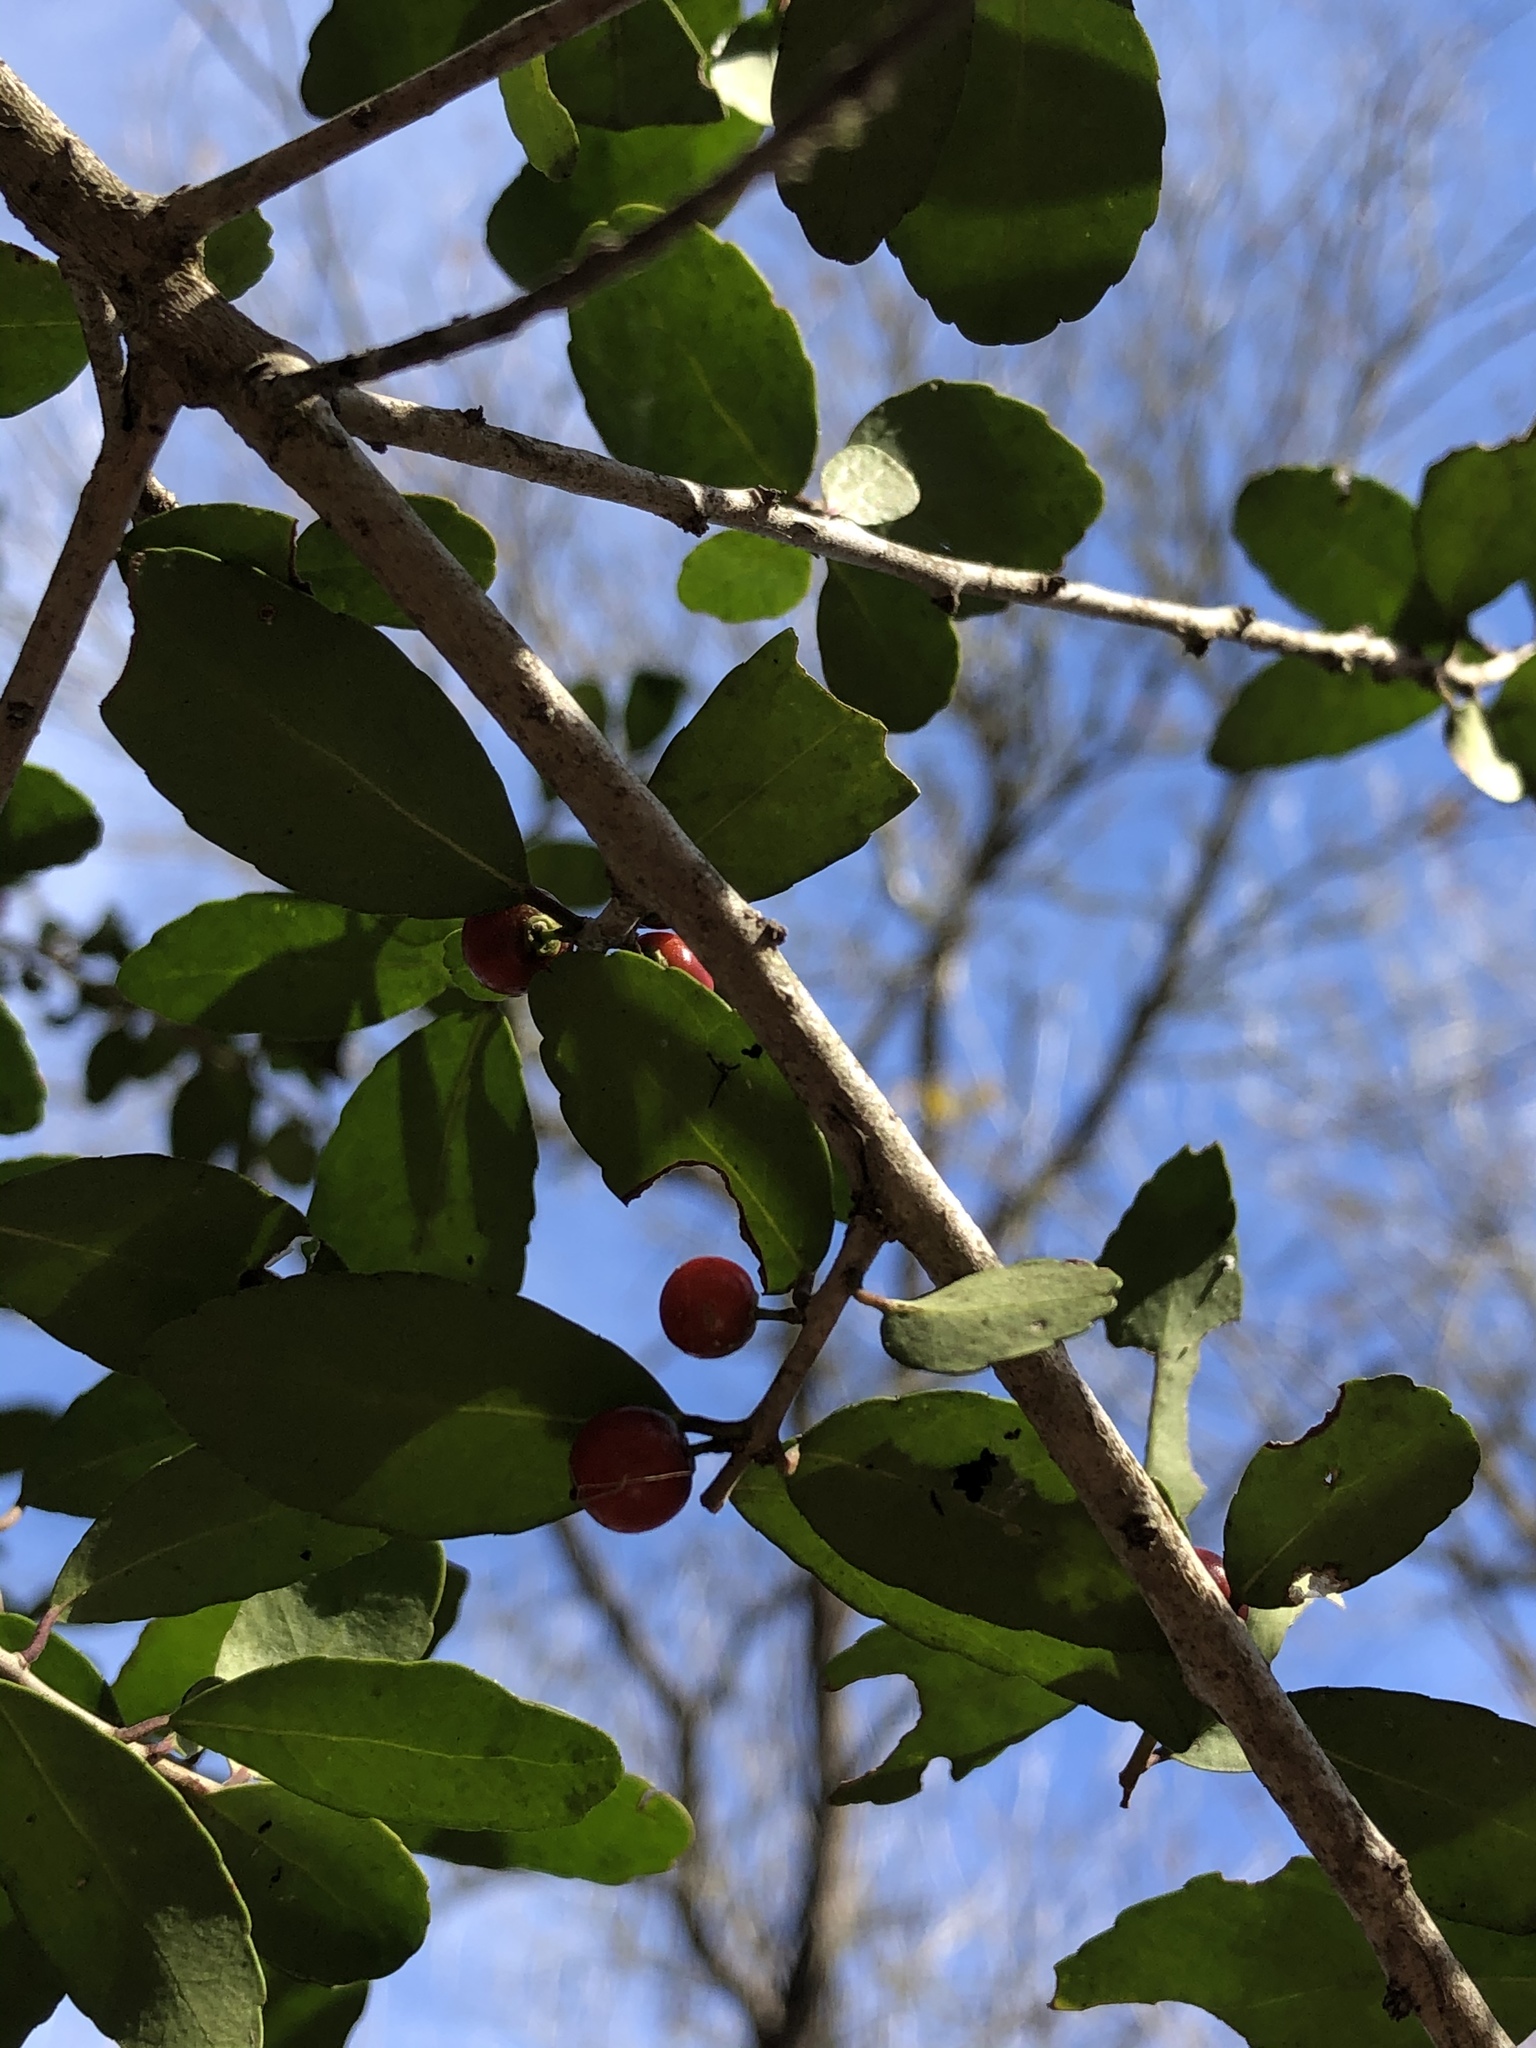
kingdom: Plantae
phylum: Tracheophyta
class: Magnoliopsida
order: Aquifoliales
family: Aquifoliaceae
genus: Ilex
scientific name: Ilex vomitoria
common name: Yaupon holly
